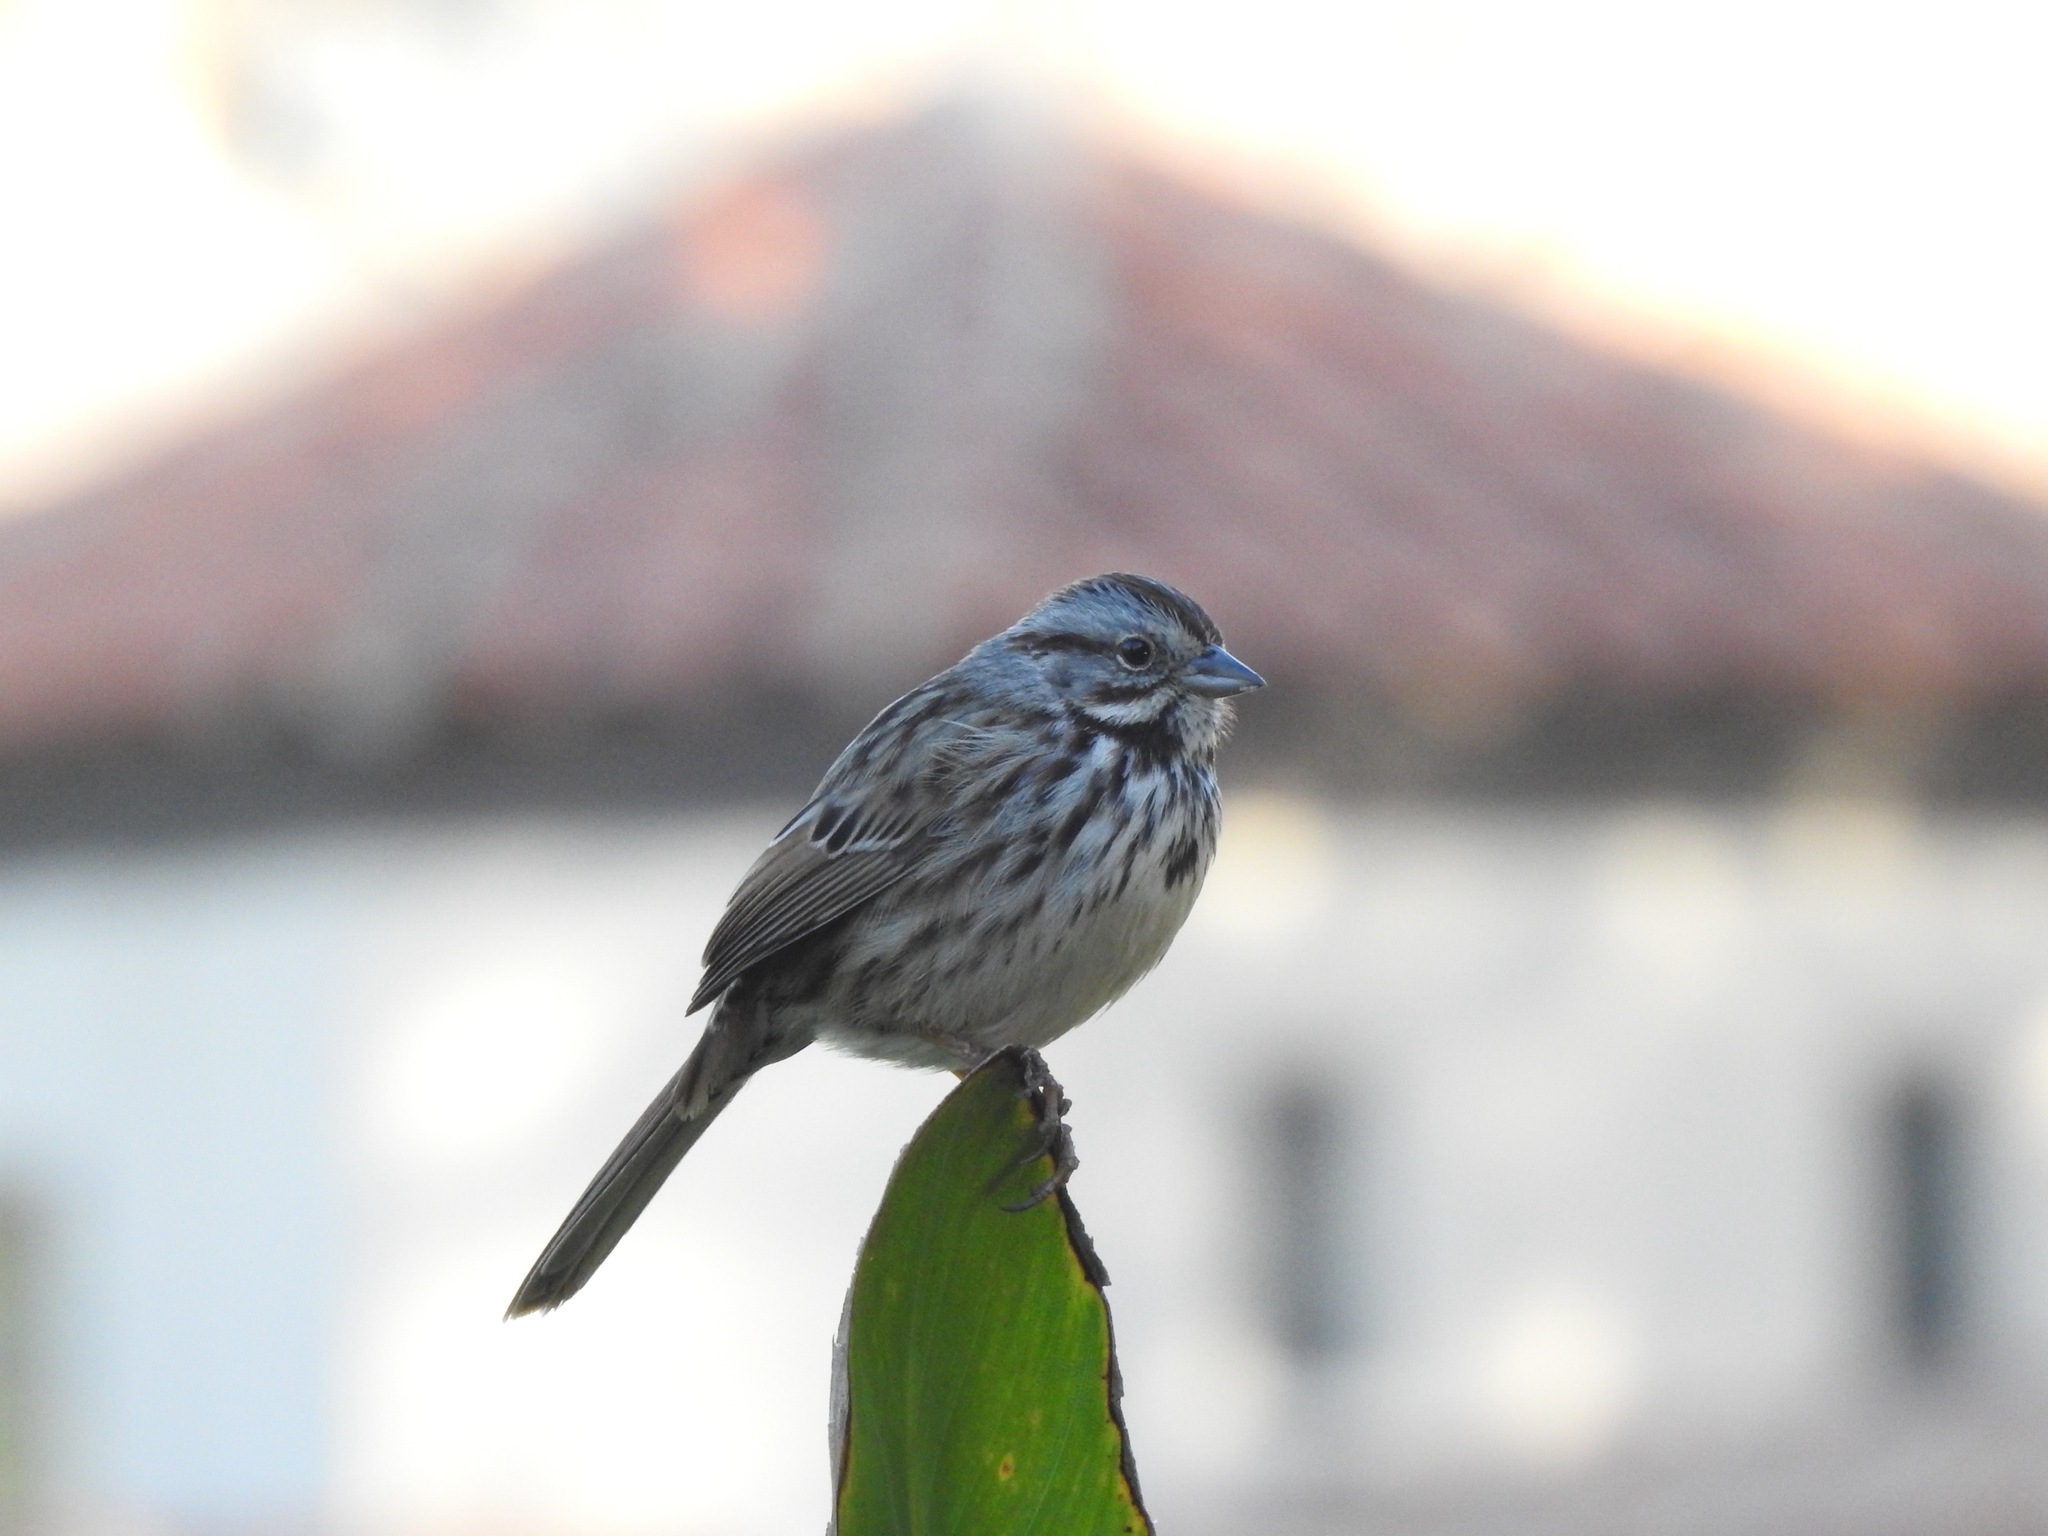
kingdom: Animalia
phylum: Chordata
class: Aves
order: Passeriformes
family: Passerellidae
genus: Melospiza
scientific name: Melospiza melodia
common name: Song sparrow
